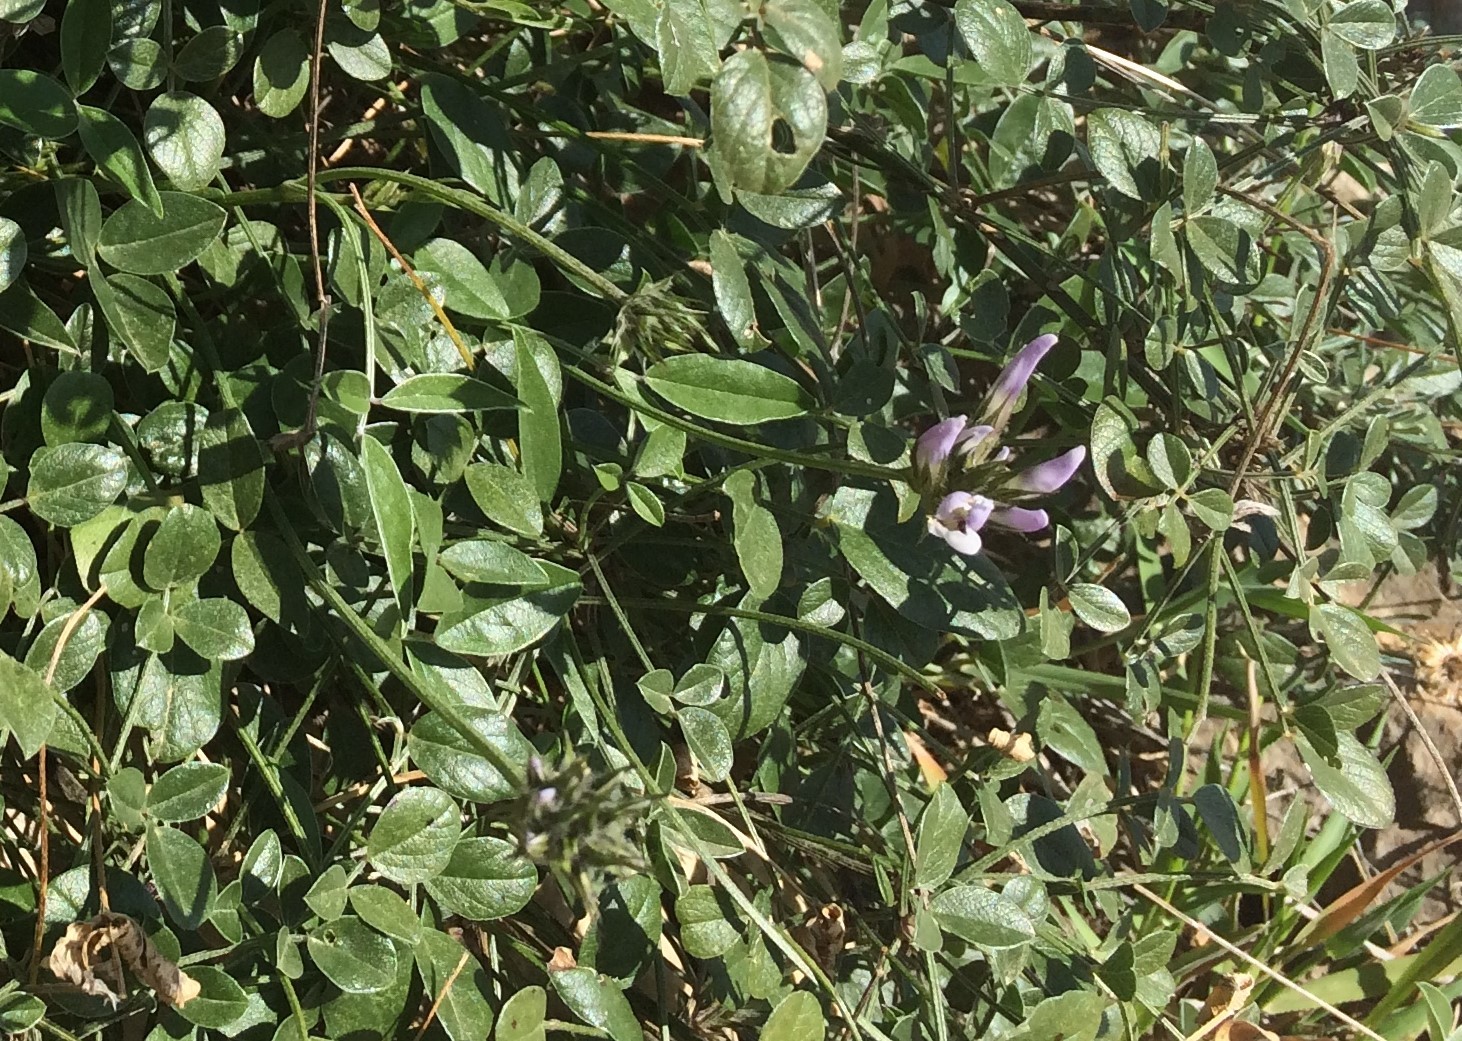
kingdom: Plantae
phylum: Tracheophyta
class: Magnoliopsida
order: Fabales
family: Fabaceae
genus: Bituminaria
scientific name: Bituminaria bituminosa
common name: Arabian pea
